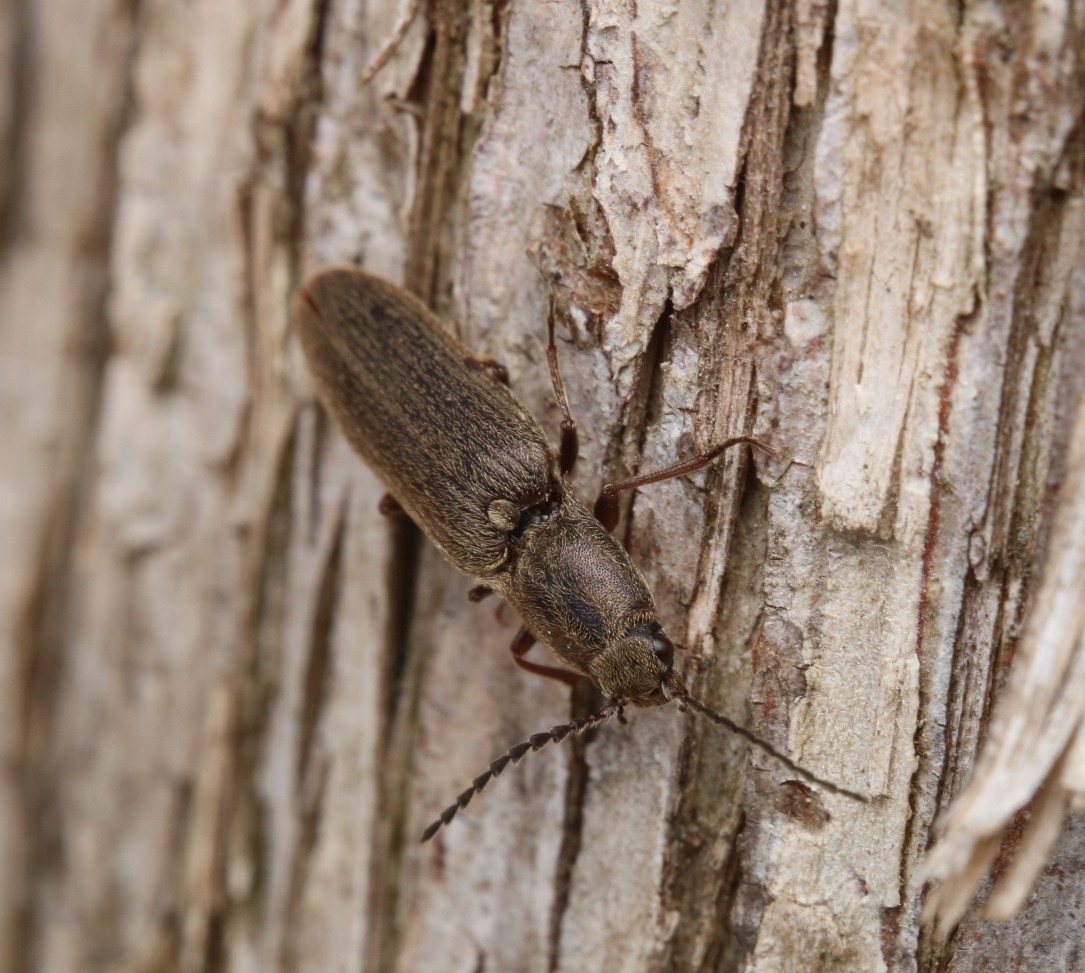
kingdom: Animalia
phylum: Arthropoda
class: Insecta
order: Coleoptera
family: Elateridae
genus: Sylvanelater
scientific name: Sylvanelater cylindriformis
